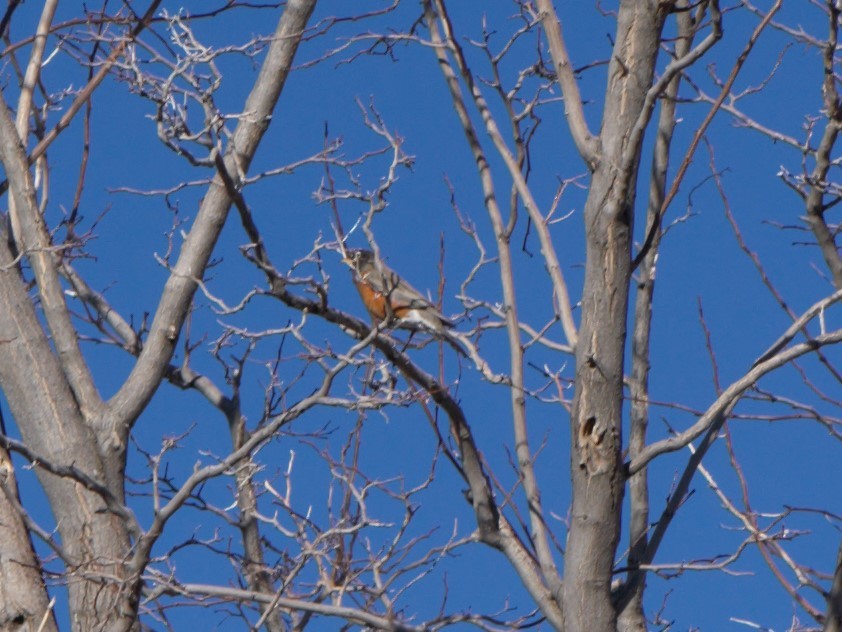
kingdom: Animalia
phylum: Chordata
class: Aves
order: Passeriformes
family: Turdidae
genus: Turdus
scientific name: Turdus migratorius
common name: American robin
